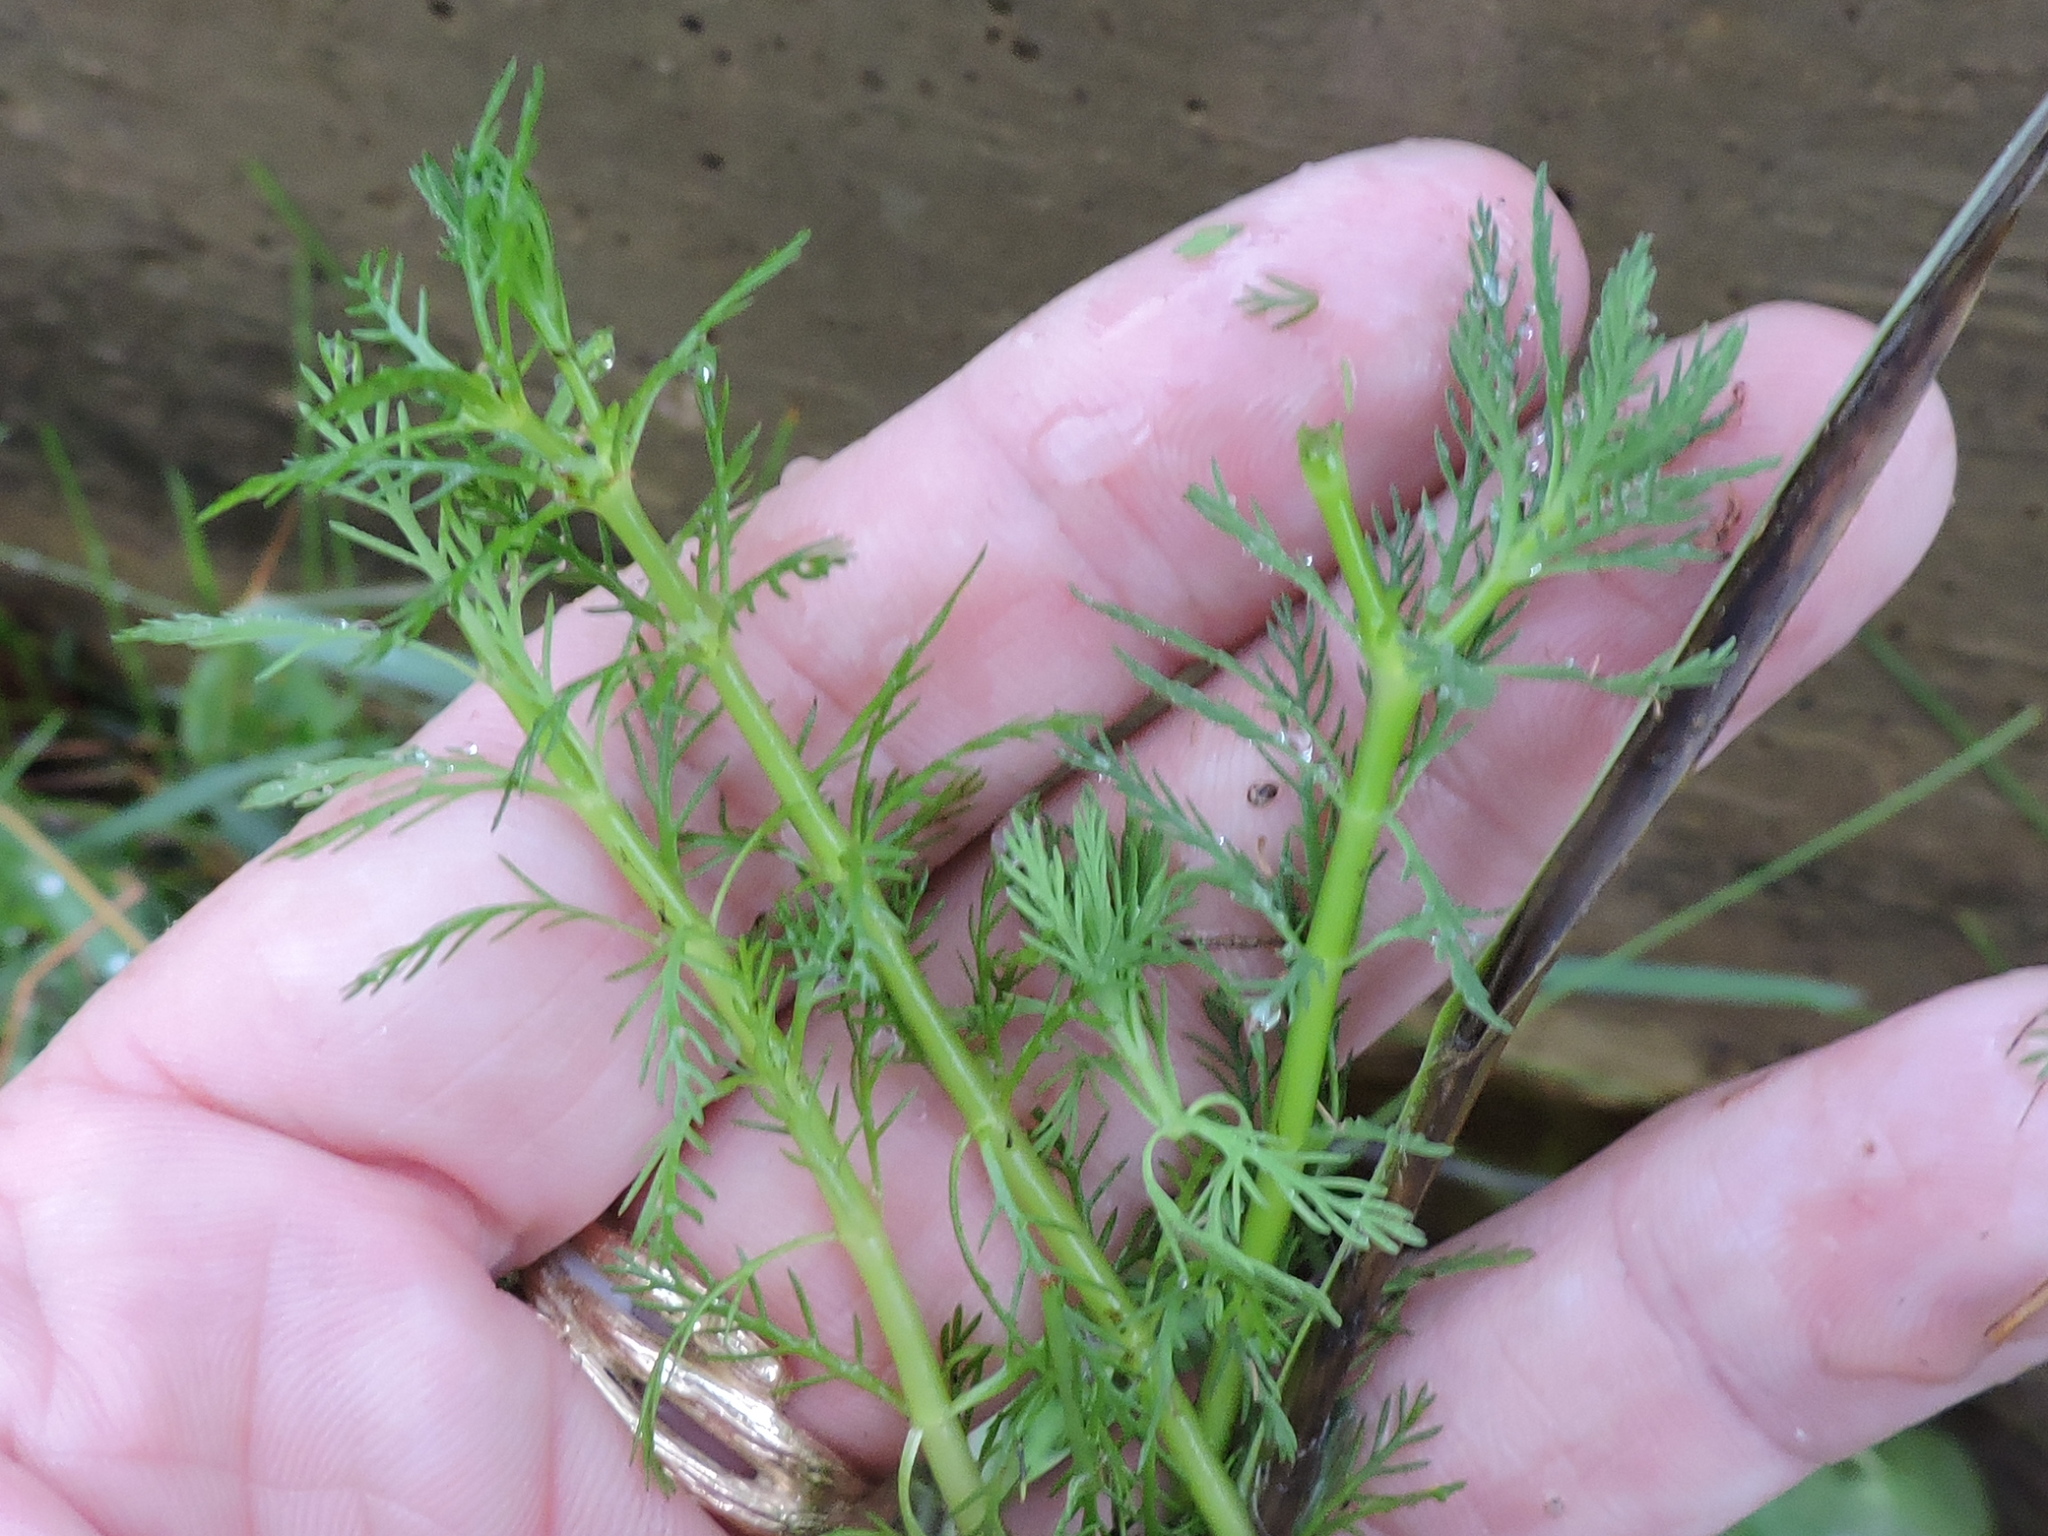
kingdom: Plantae
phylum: Tracheophyta
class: Magnoliopsida
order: Saxifragales
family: Haloragaceae
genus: Myriophyllum
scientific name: Myriophyllum aquaticum
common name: Parrot's feather
